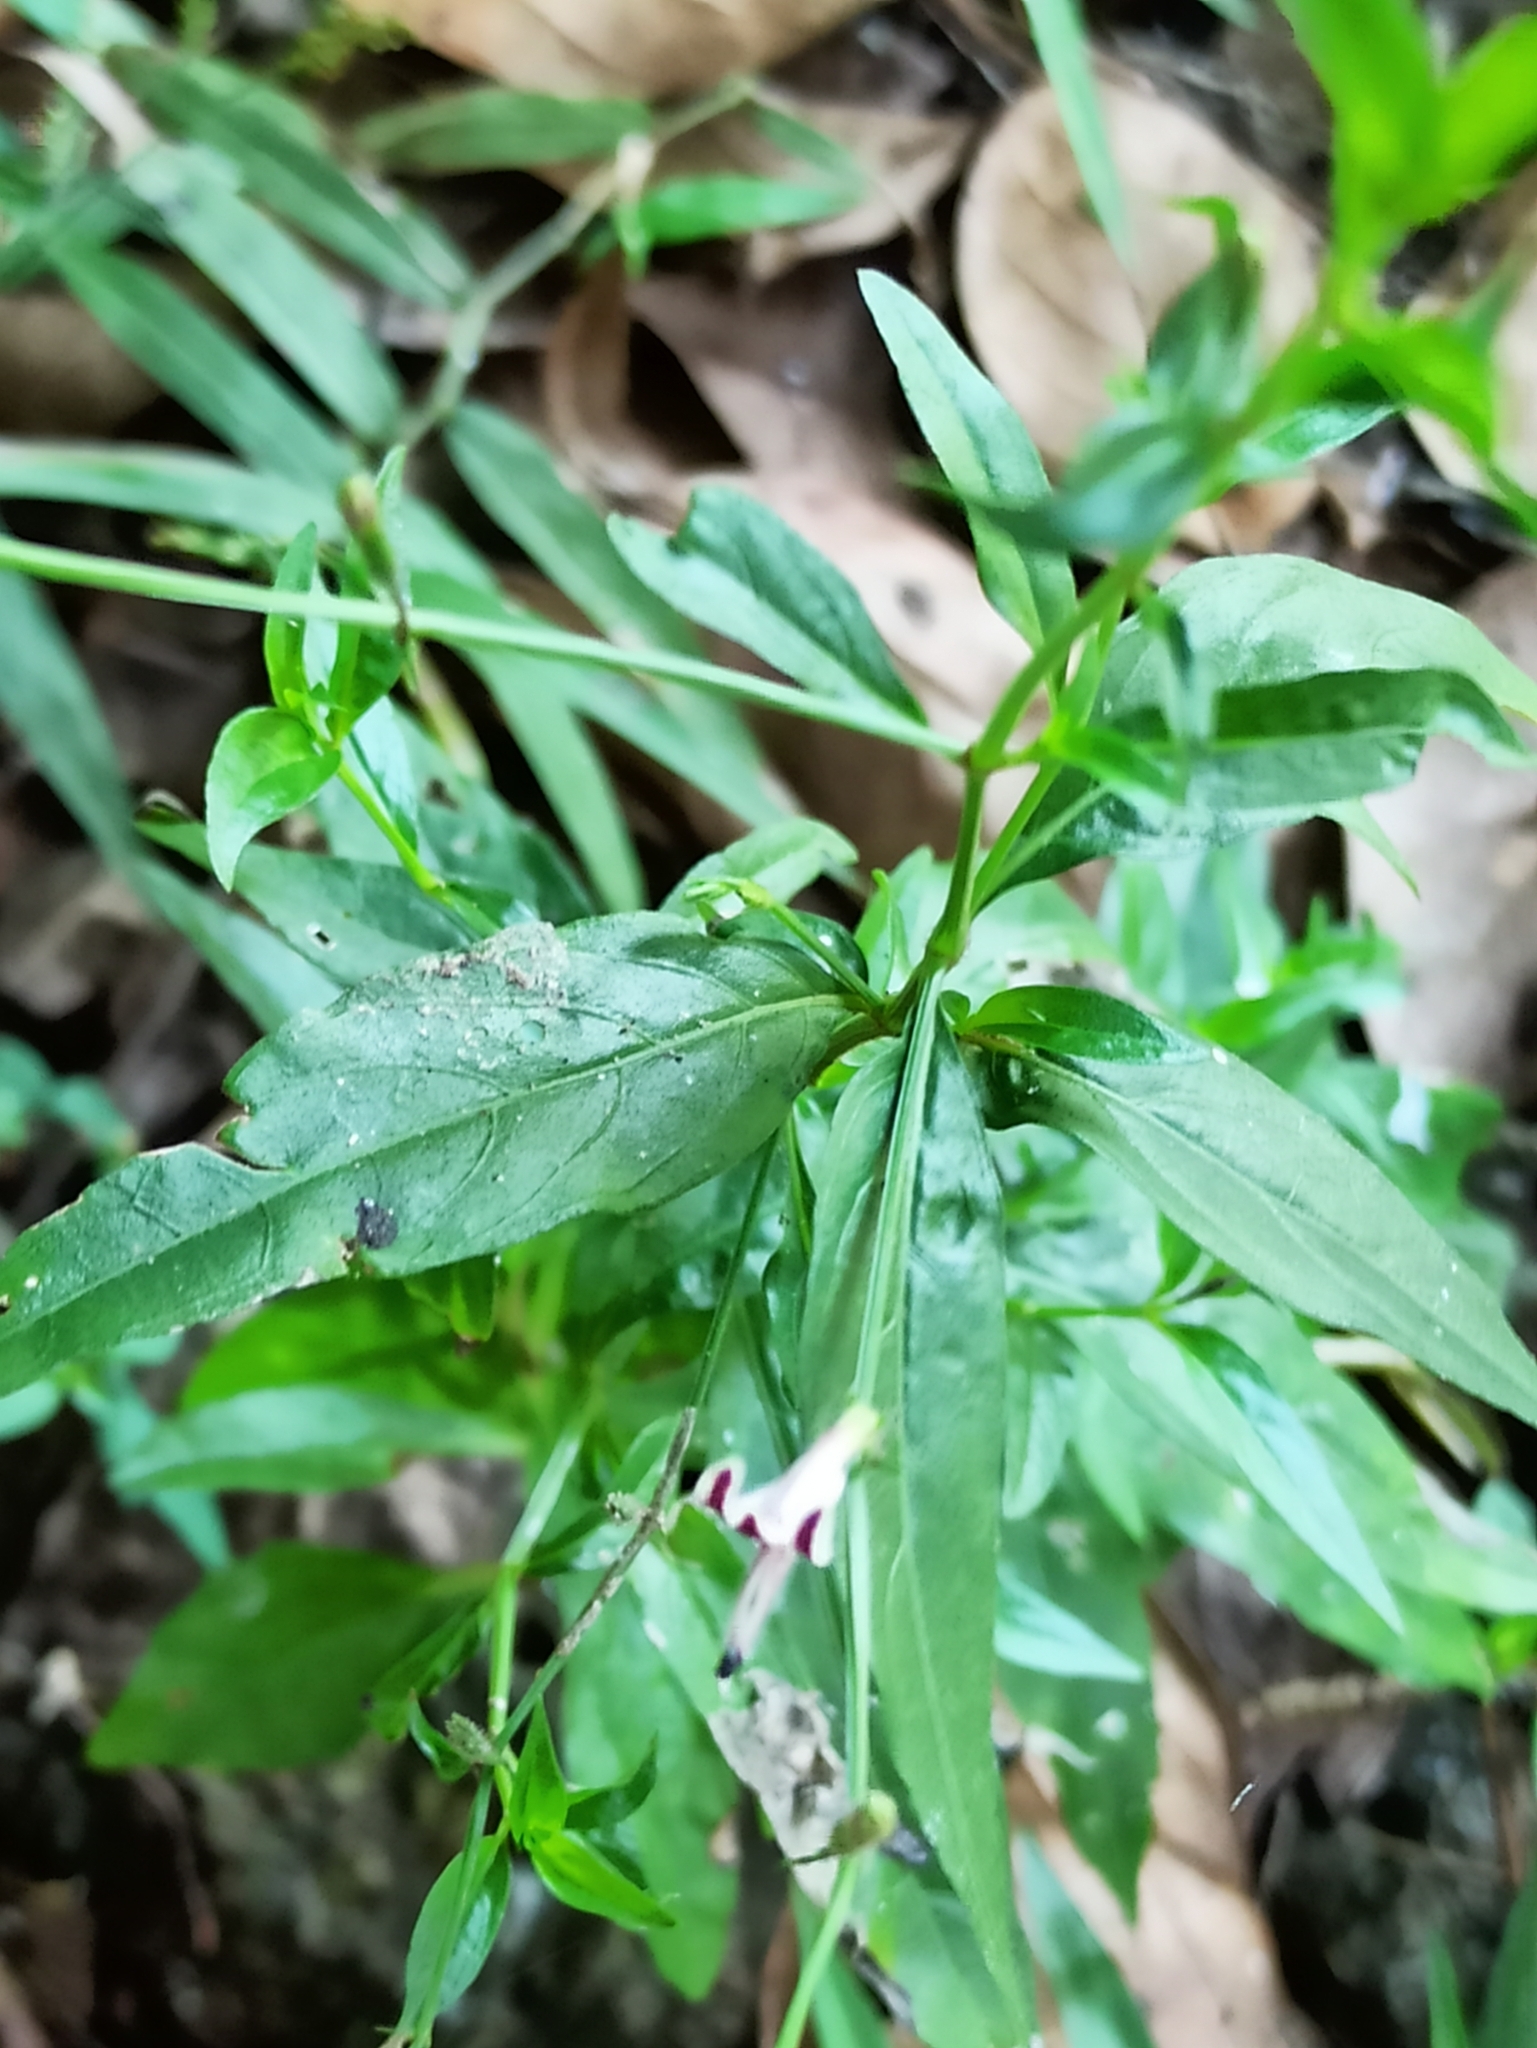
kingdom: Plantae
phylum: Tracheophyta
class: Magnoliopsida
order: Lamiales
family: Acanthaceae
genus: Andrographis
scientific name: Andrographis paniculata
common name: Green chireta
